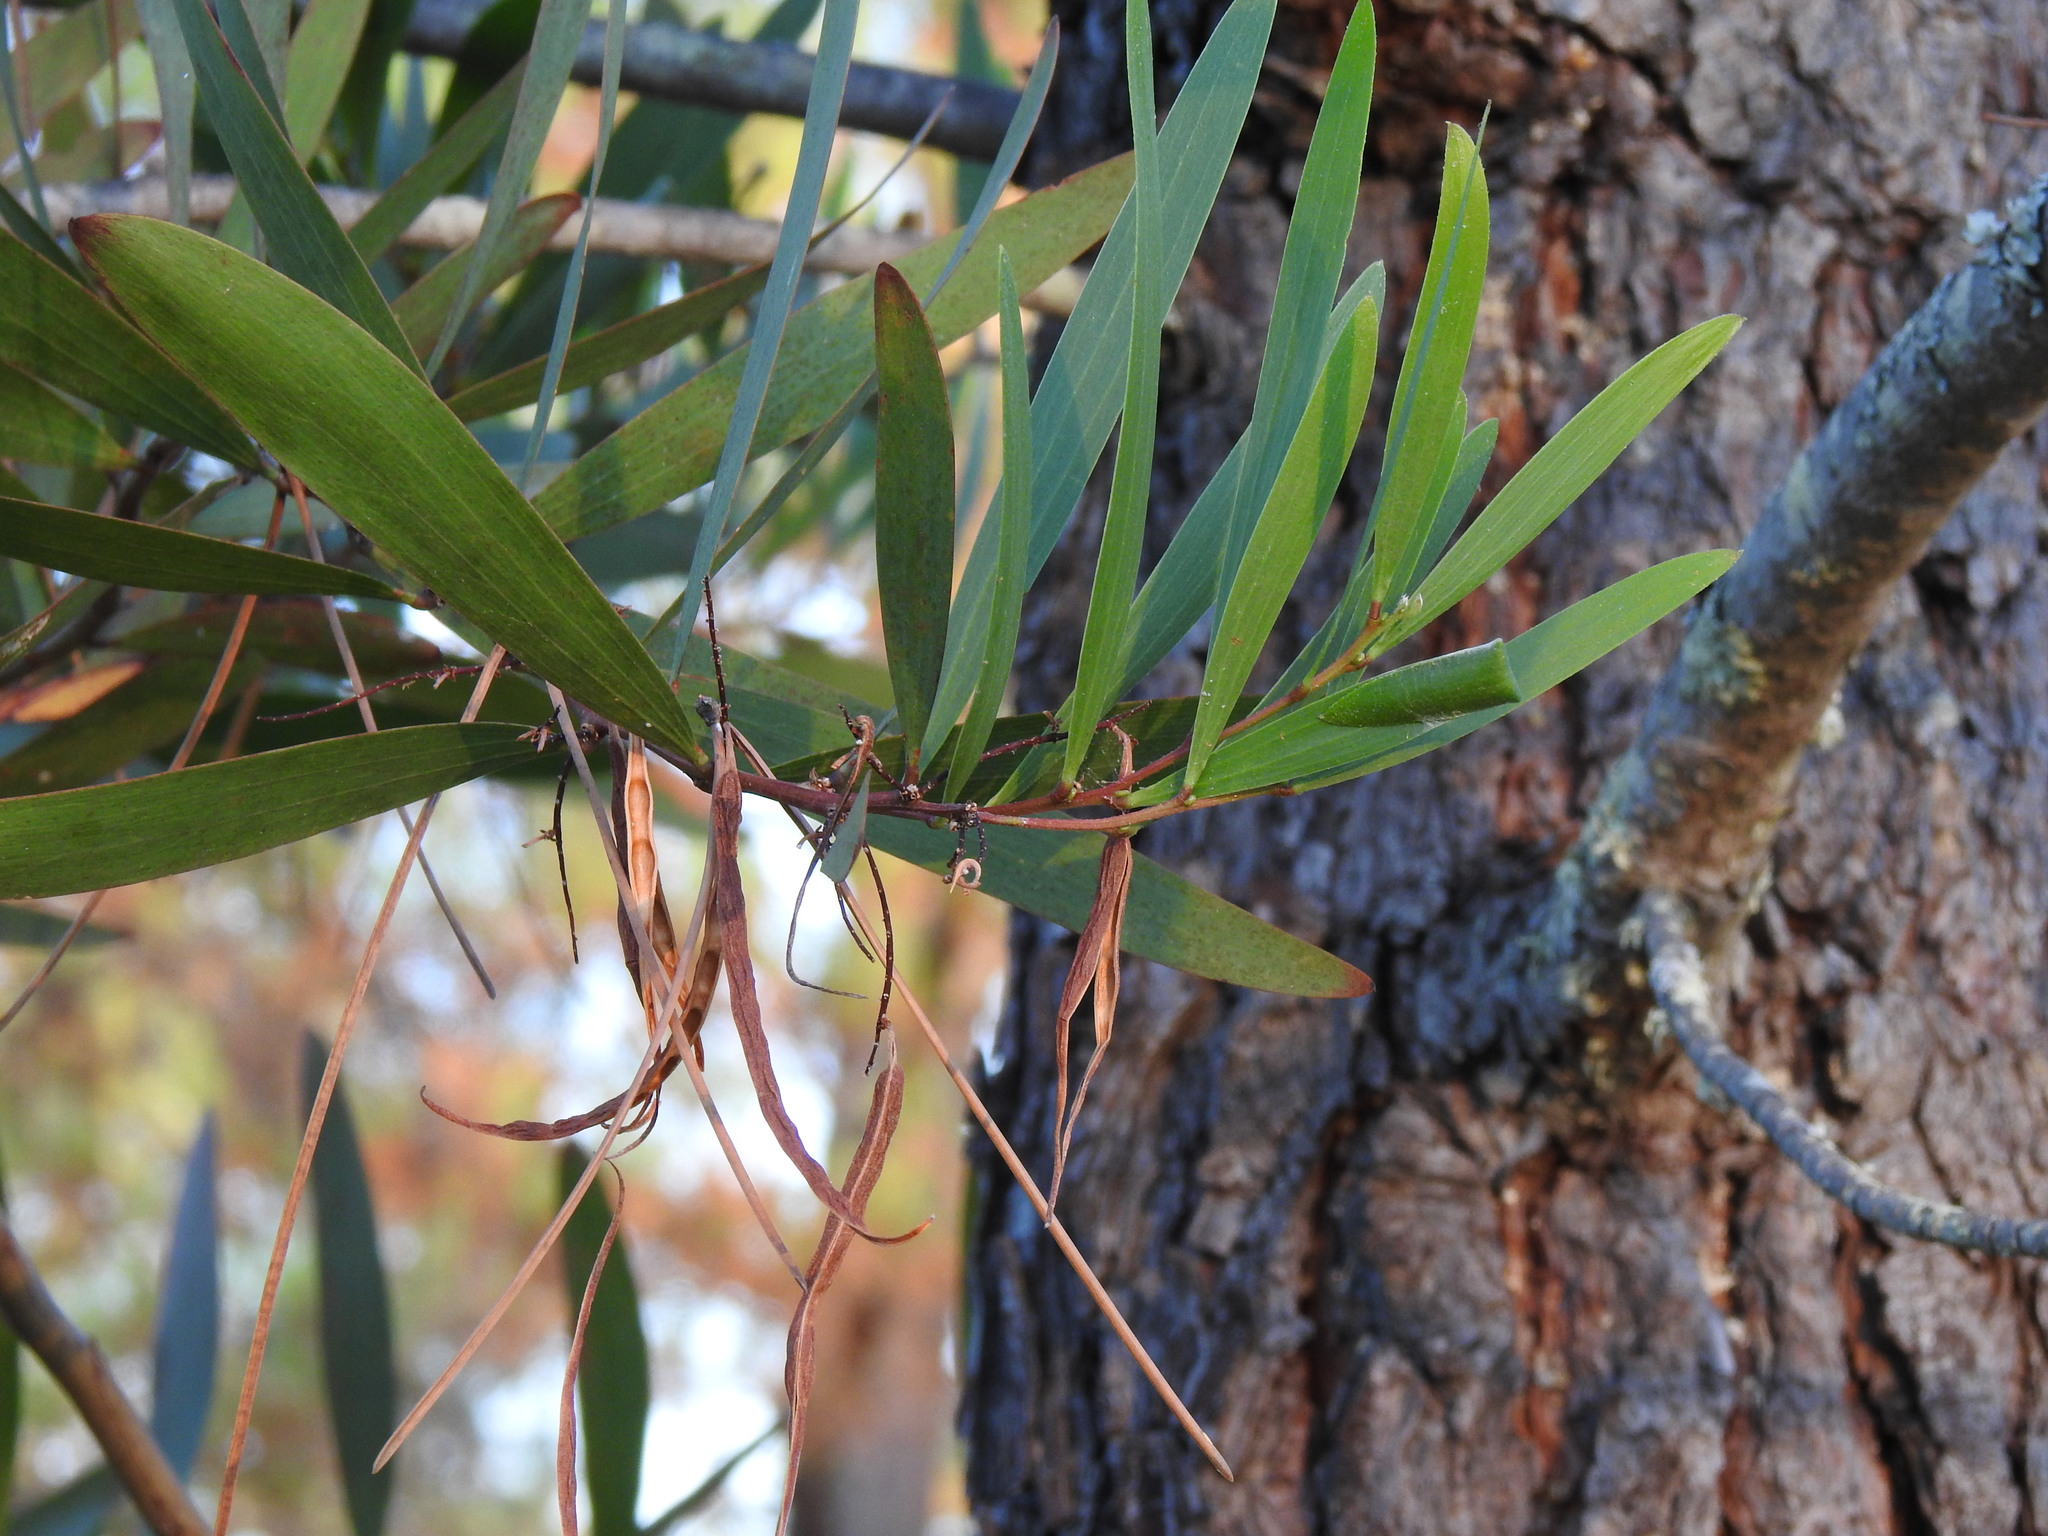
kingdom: Plantae
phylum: Tracheophyta
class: Magnoliopsida
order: Fabales
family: Fabaceae
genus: Acacia
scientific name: Acacia longifolia
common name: Sydney golden wattle
